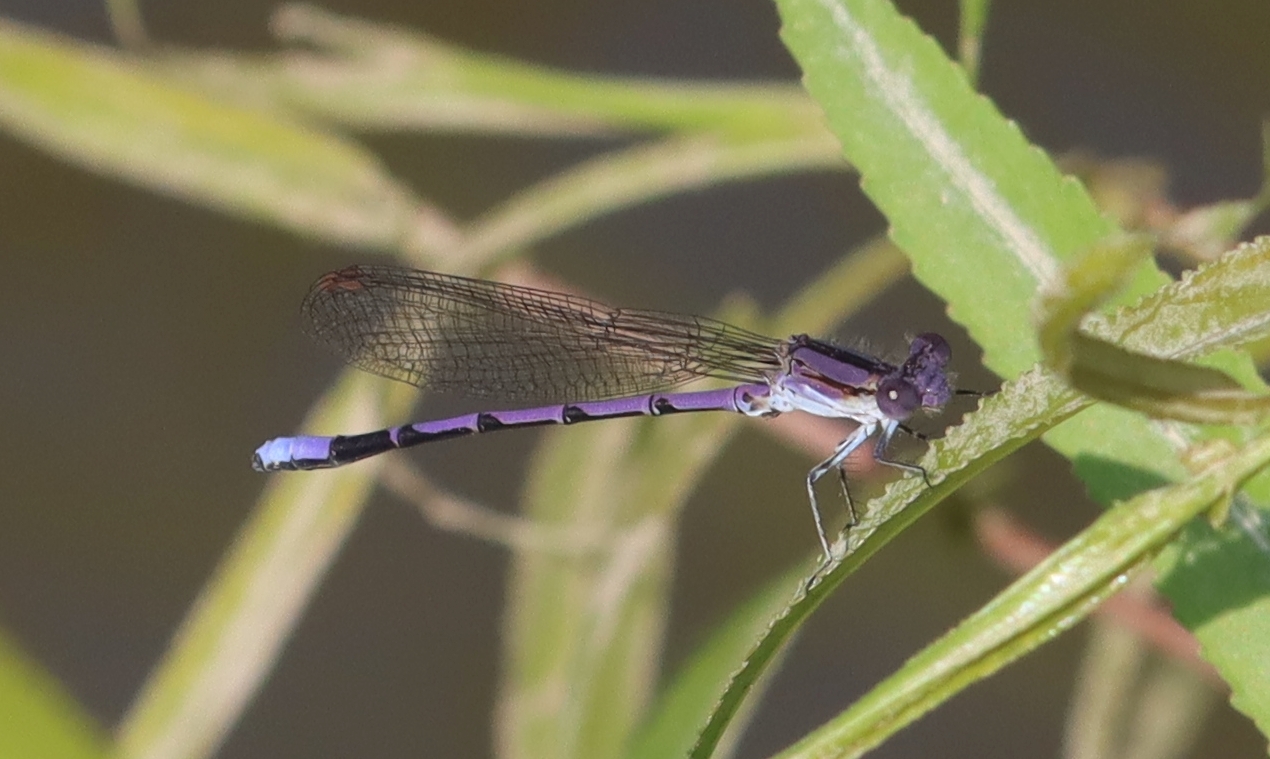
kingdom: Animalia
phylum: Arthropoda
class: Insecta
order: Odonata
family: Coenagrionidae
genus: Argia
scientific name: Argia fumipennis
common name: Variable dancer
